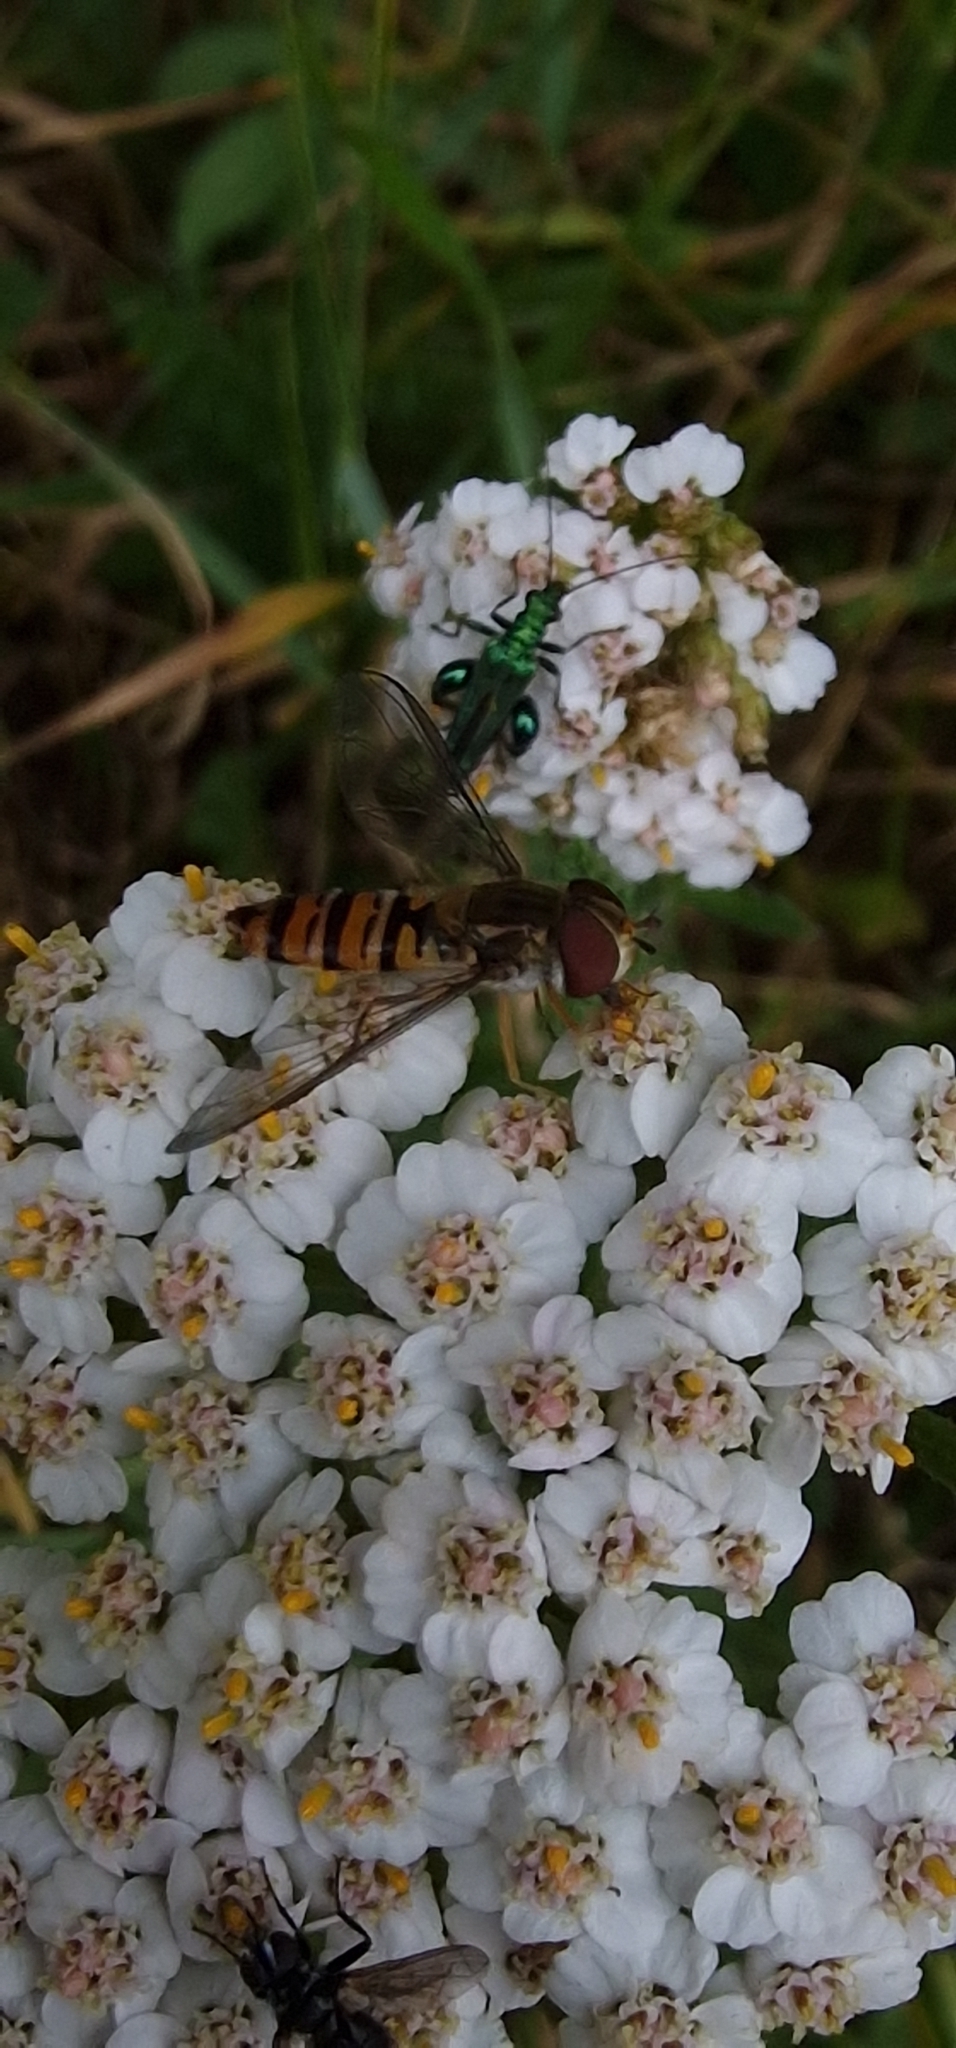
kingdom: Animalia
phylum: Arthropoda
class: Insecta
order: Diptera
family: Syrphidae
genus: Episyrphus
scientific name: Episyrphus balteatus
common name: Marmalade hoverfly
